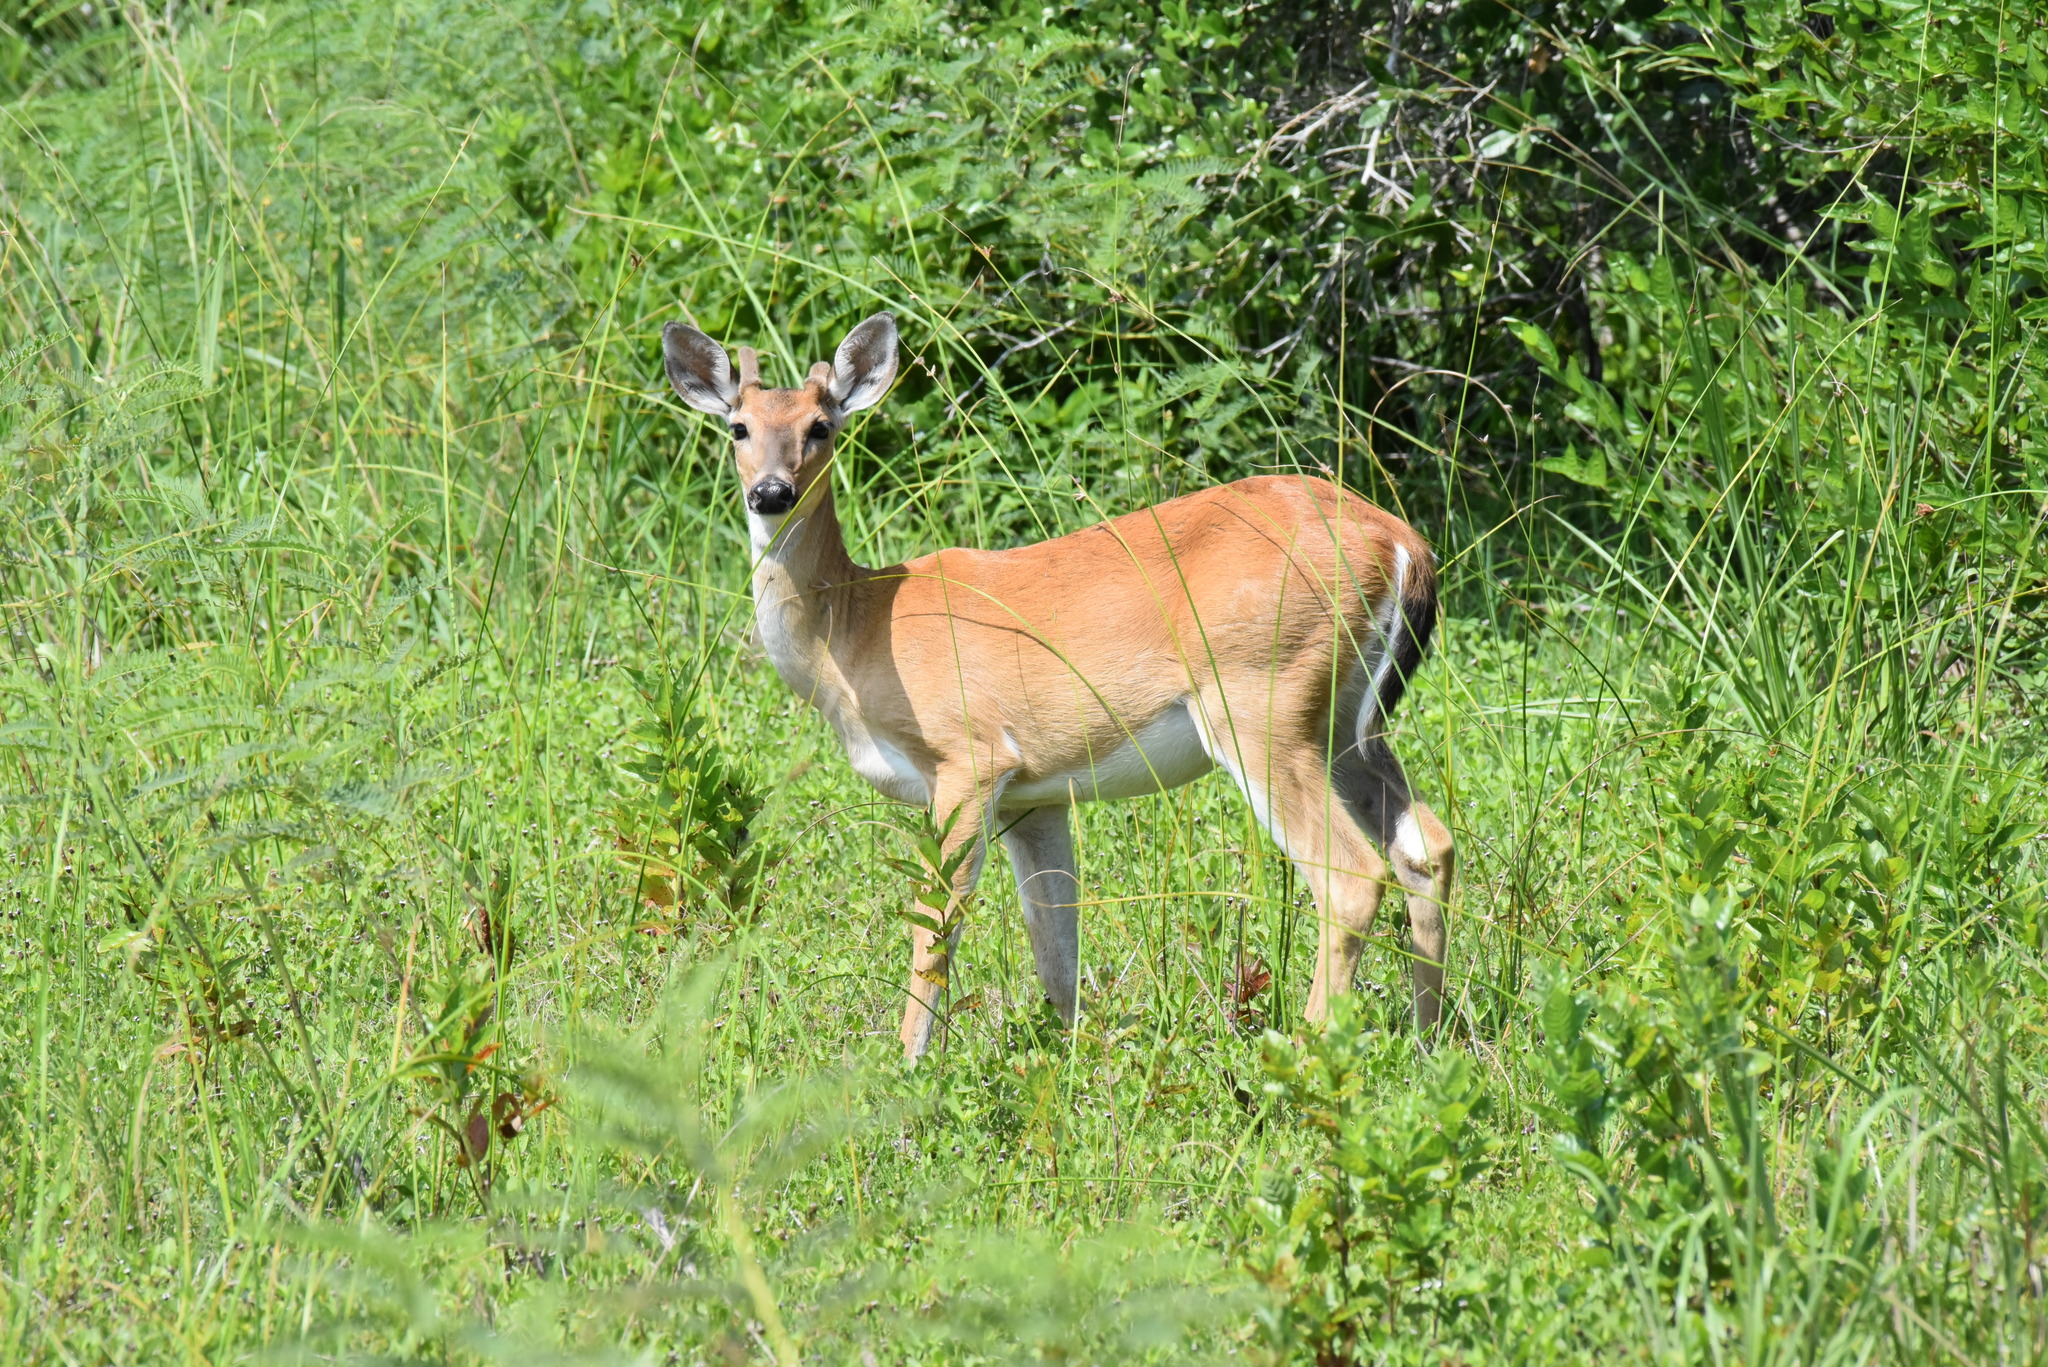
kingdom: Animalia
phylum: Chordata
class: Mammalia
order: Artiodactyla
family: Cervidae
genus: Odocoileus
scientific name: Odocoileus virginianus
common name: White-tailed deer
